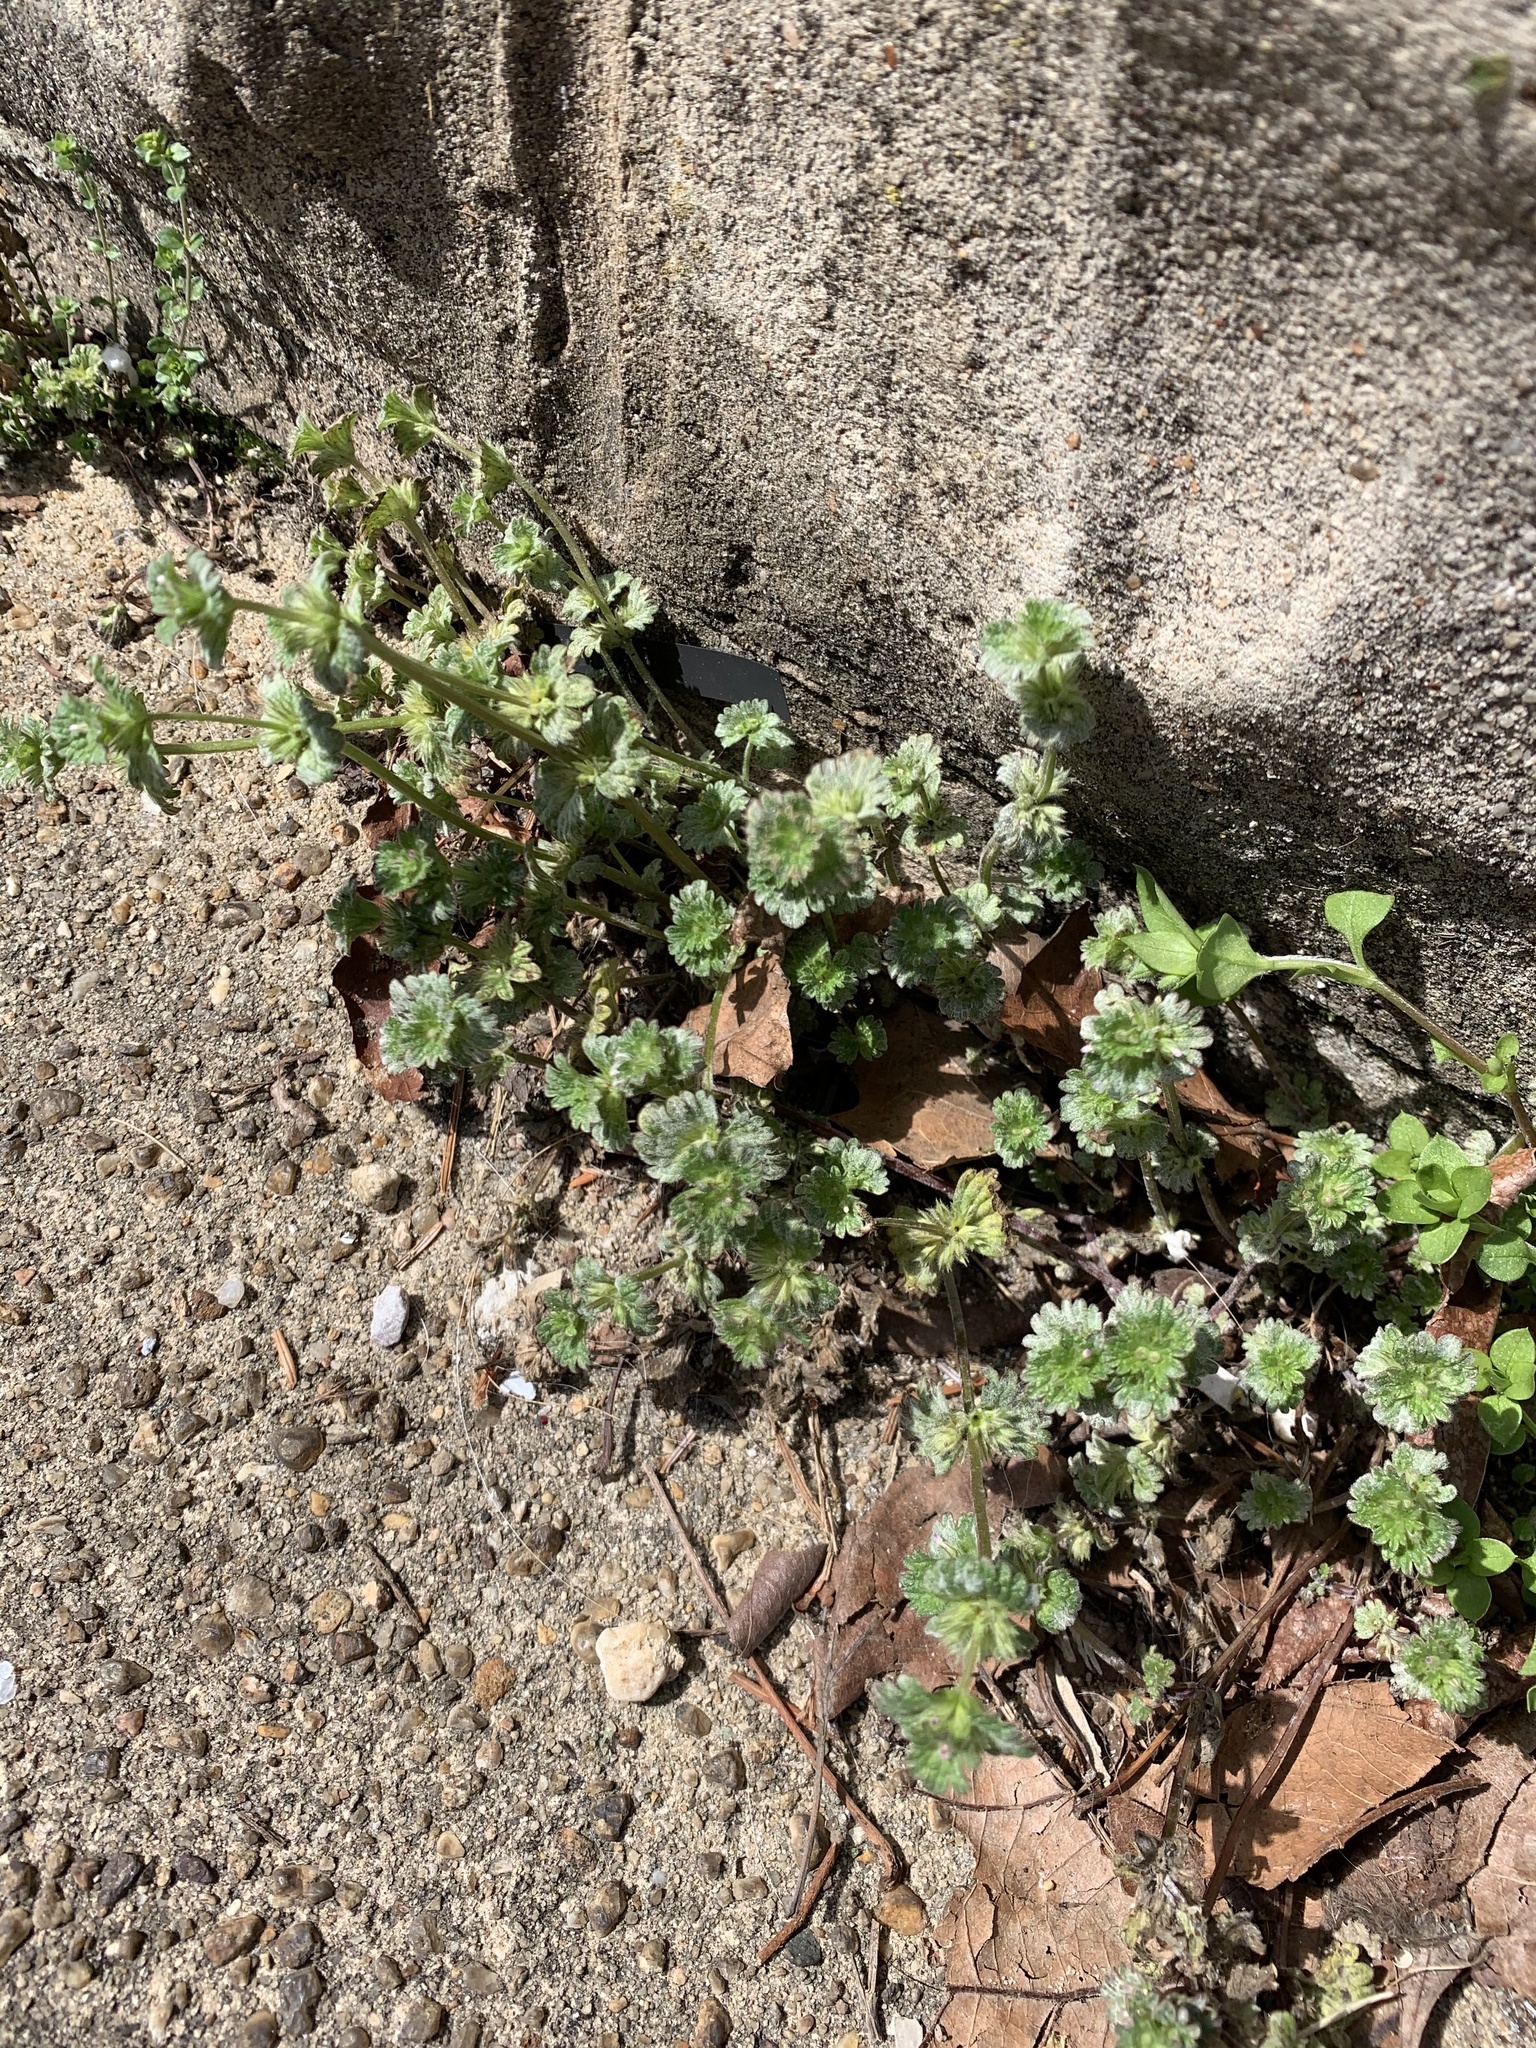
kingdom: Plantae
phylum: Tracheophyta
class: Magnoliopsida
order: Lamiales
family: Lamiaceae
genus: Lamium
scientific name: Lamium amplexicaule
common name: Henbit dead-nettle
